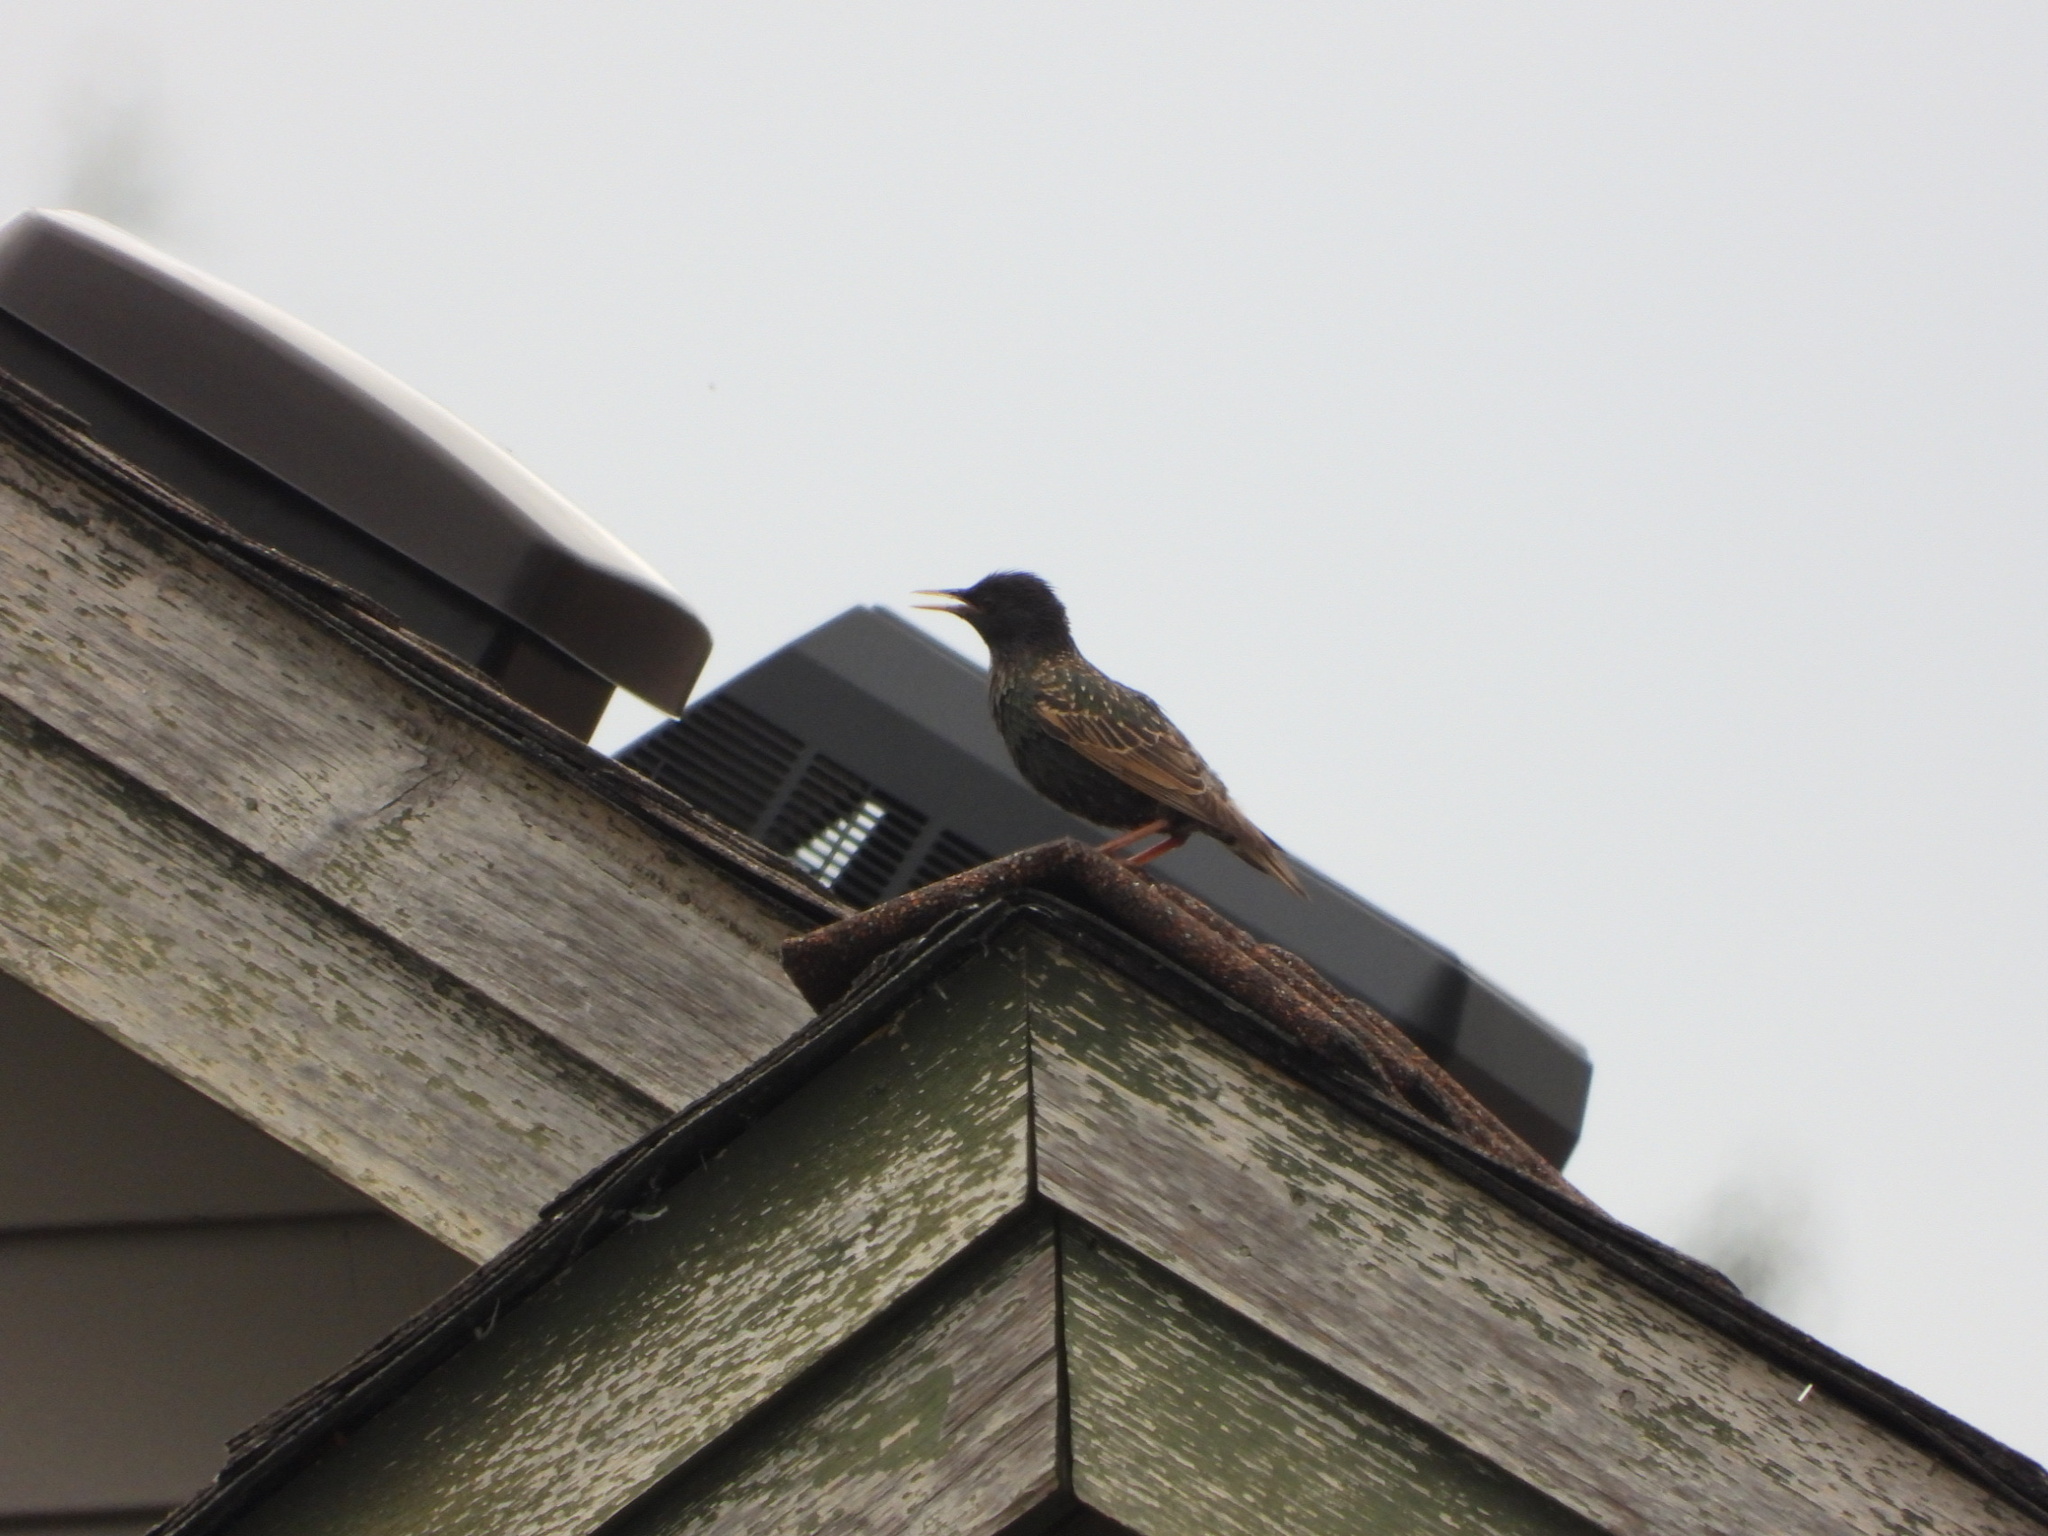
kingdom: Animalia
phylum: Chordata
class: Aves
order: Passeriformes
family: Sturnidae
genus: Sturnus
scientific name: Sturnus vulgaris
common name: Common starling
